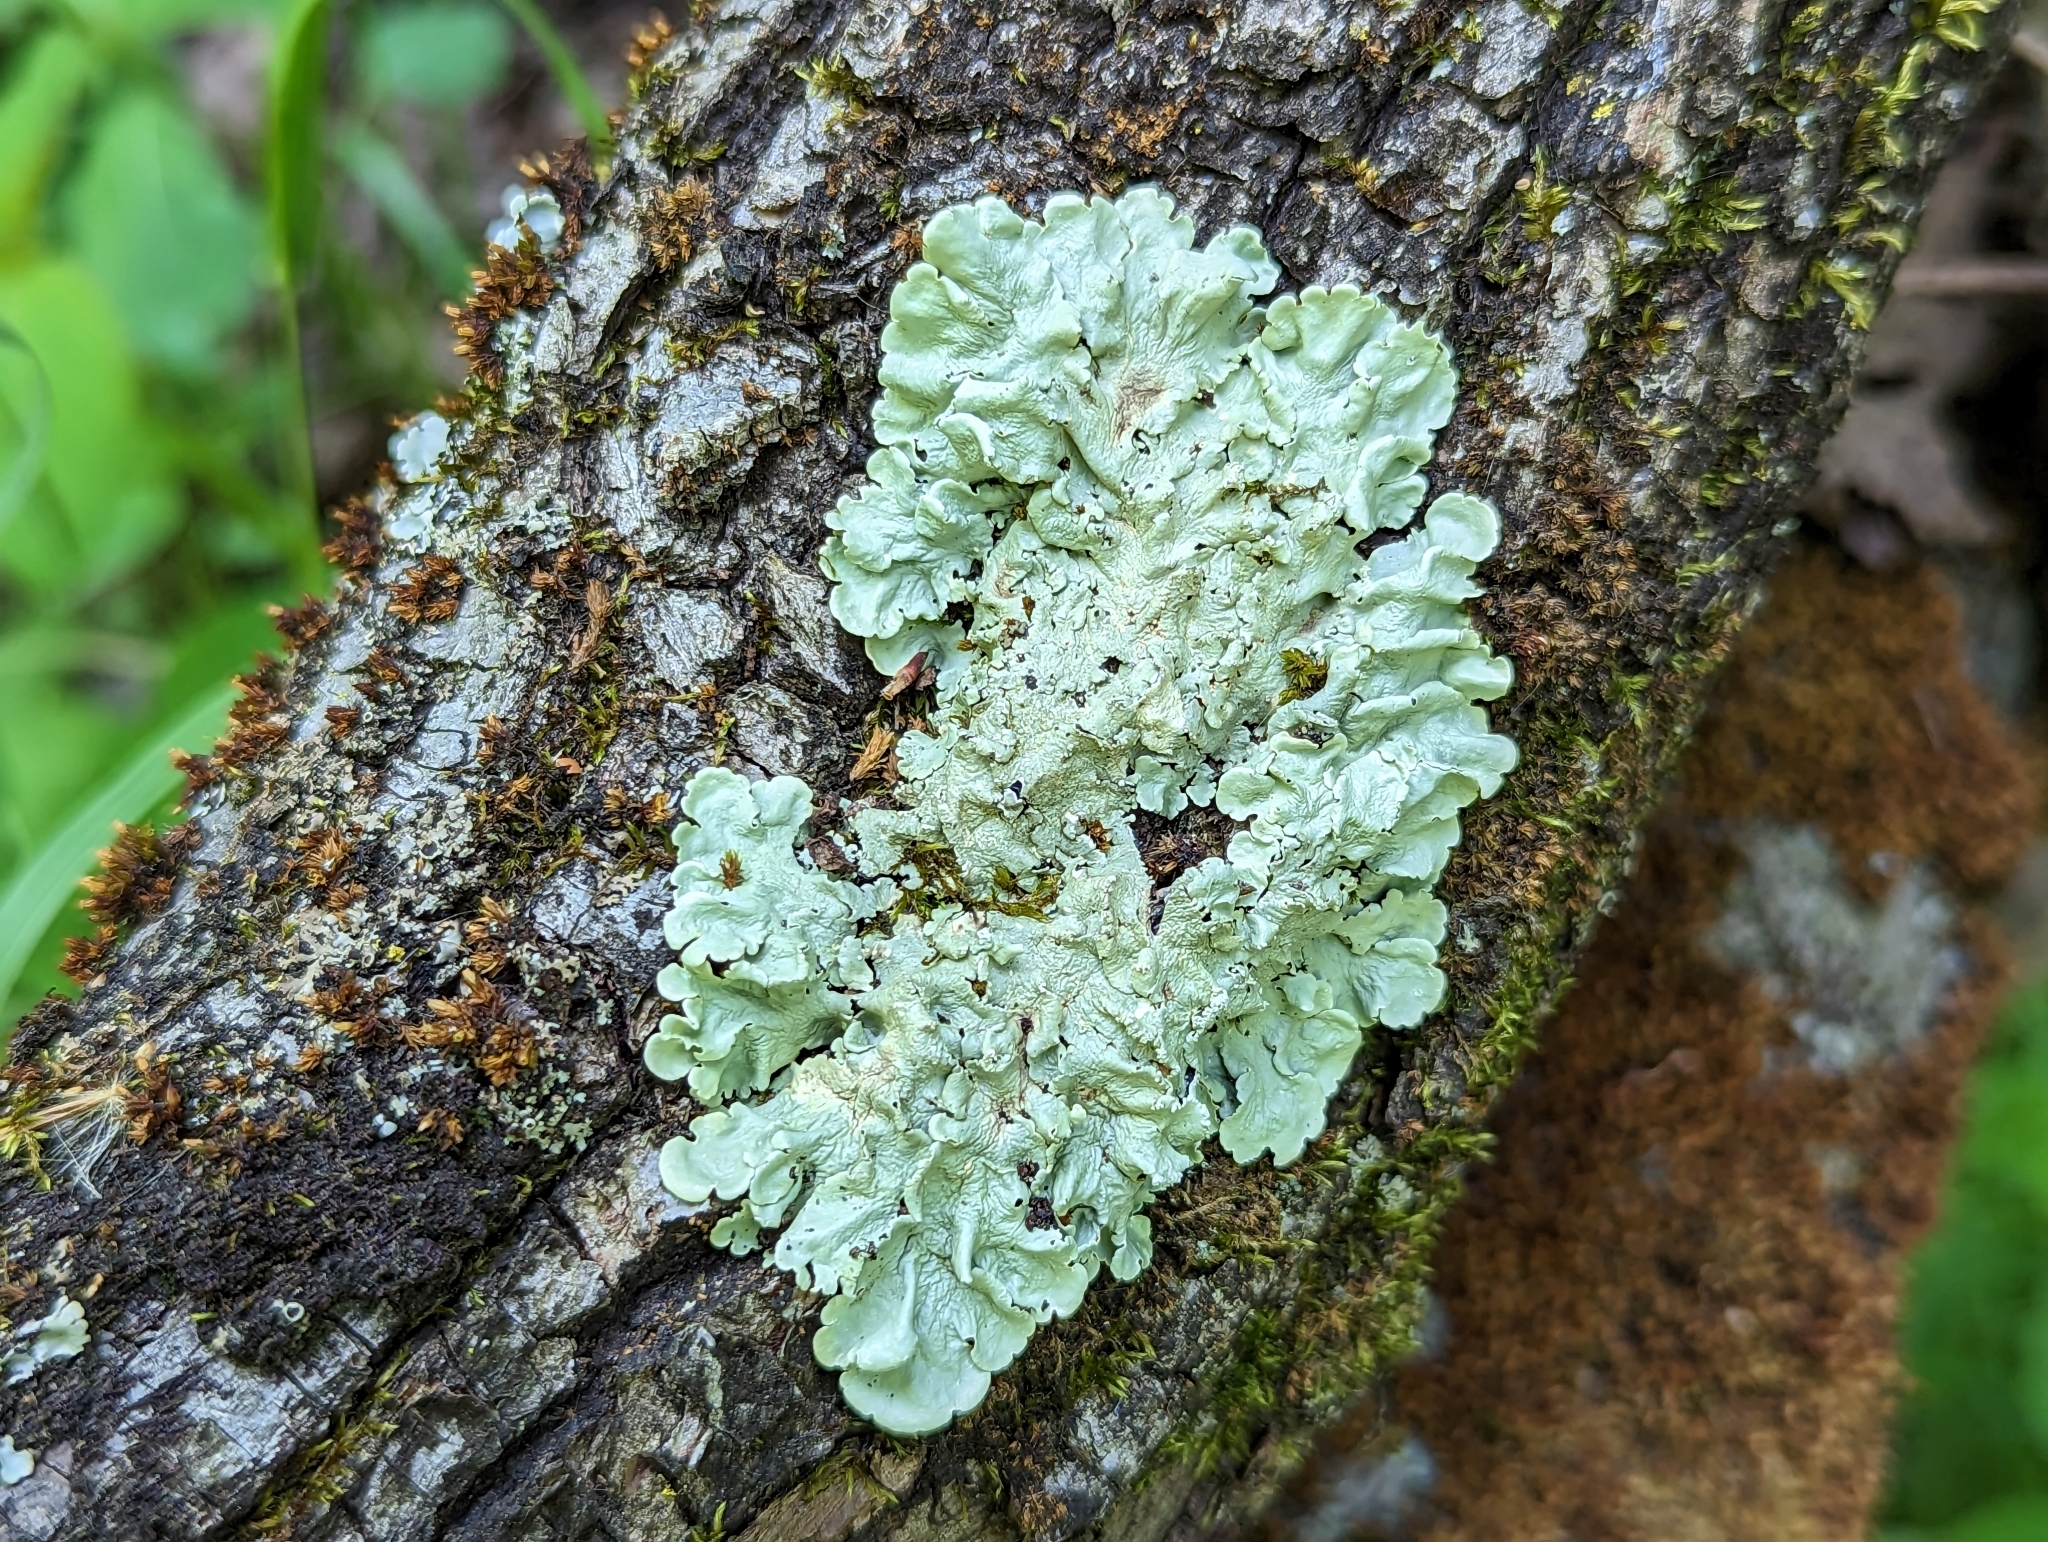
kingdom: Fungi
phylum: Ascomycota
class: Lecanoromycetes
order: Lecanorales
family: Parmeliaceae
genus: Flavoparmelia
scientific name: Flavoparmelia caperata
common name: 40-mile per hour lichen
